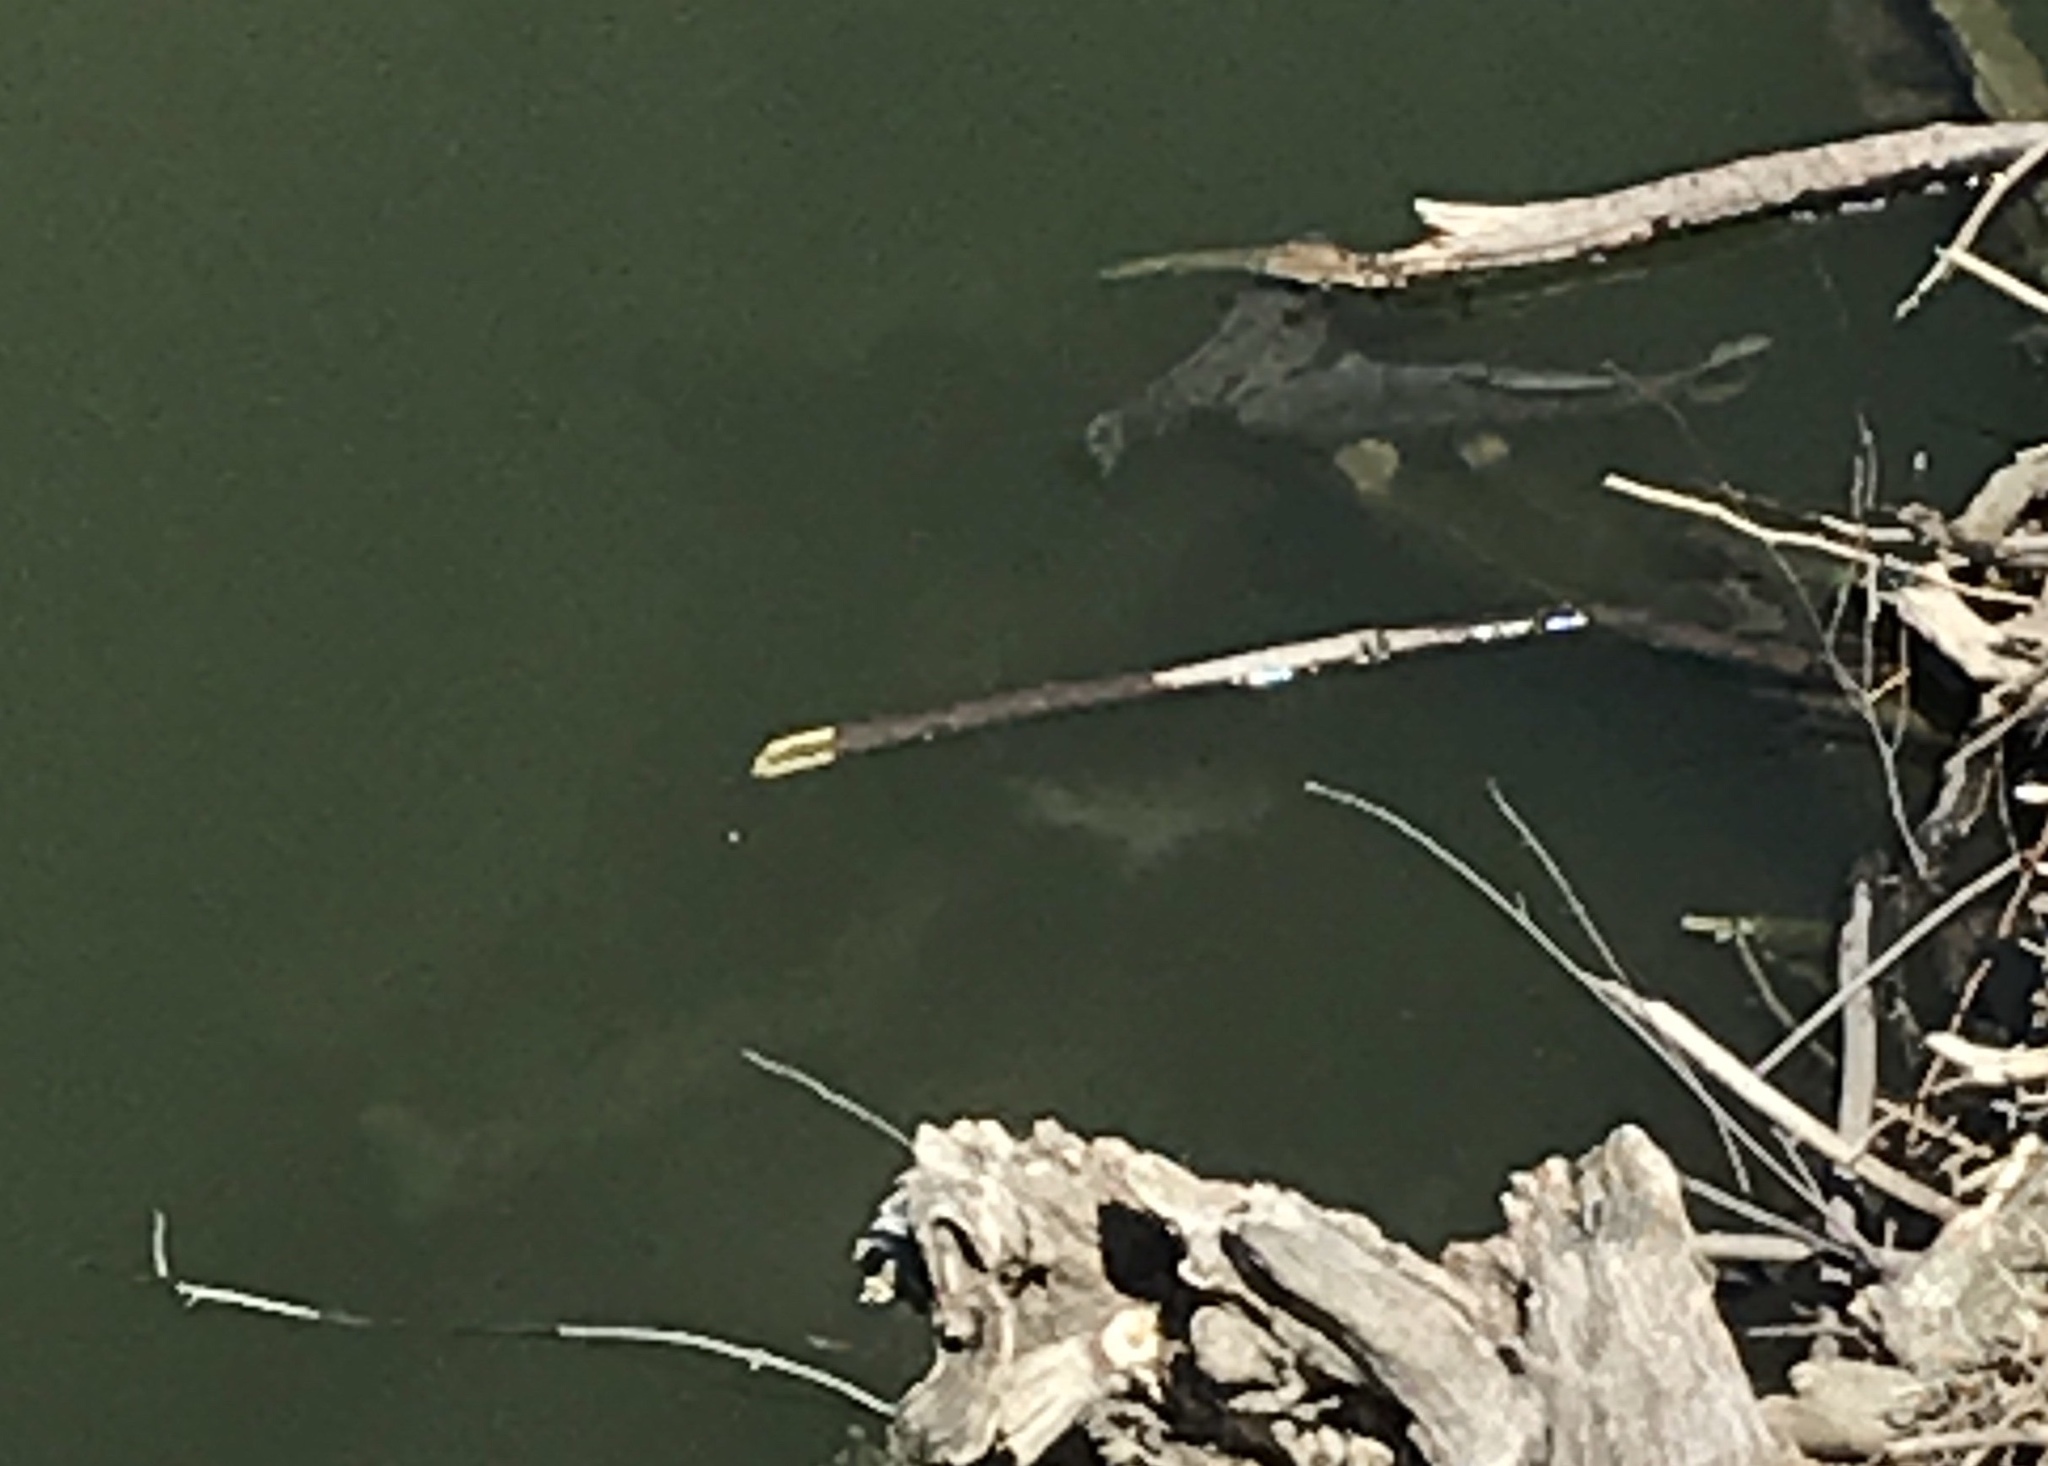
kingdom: Animalia
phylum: Chordata
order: Cypriniformes
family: Cyprinidae
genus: Cyprinus
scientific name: Cyprinus carpio
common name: Common carp
